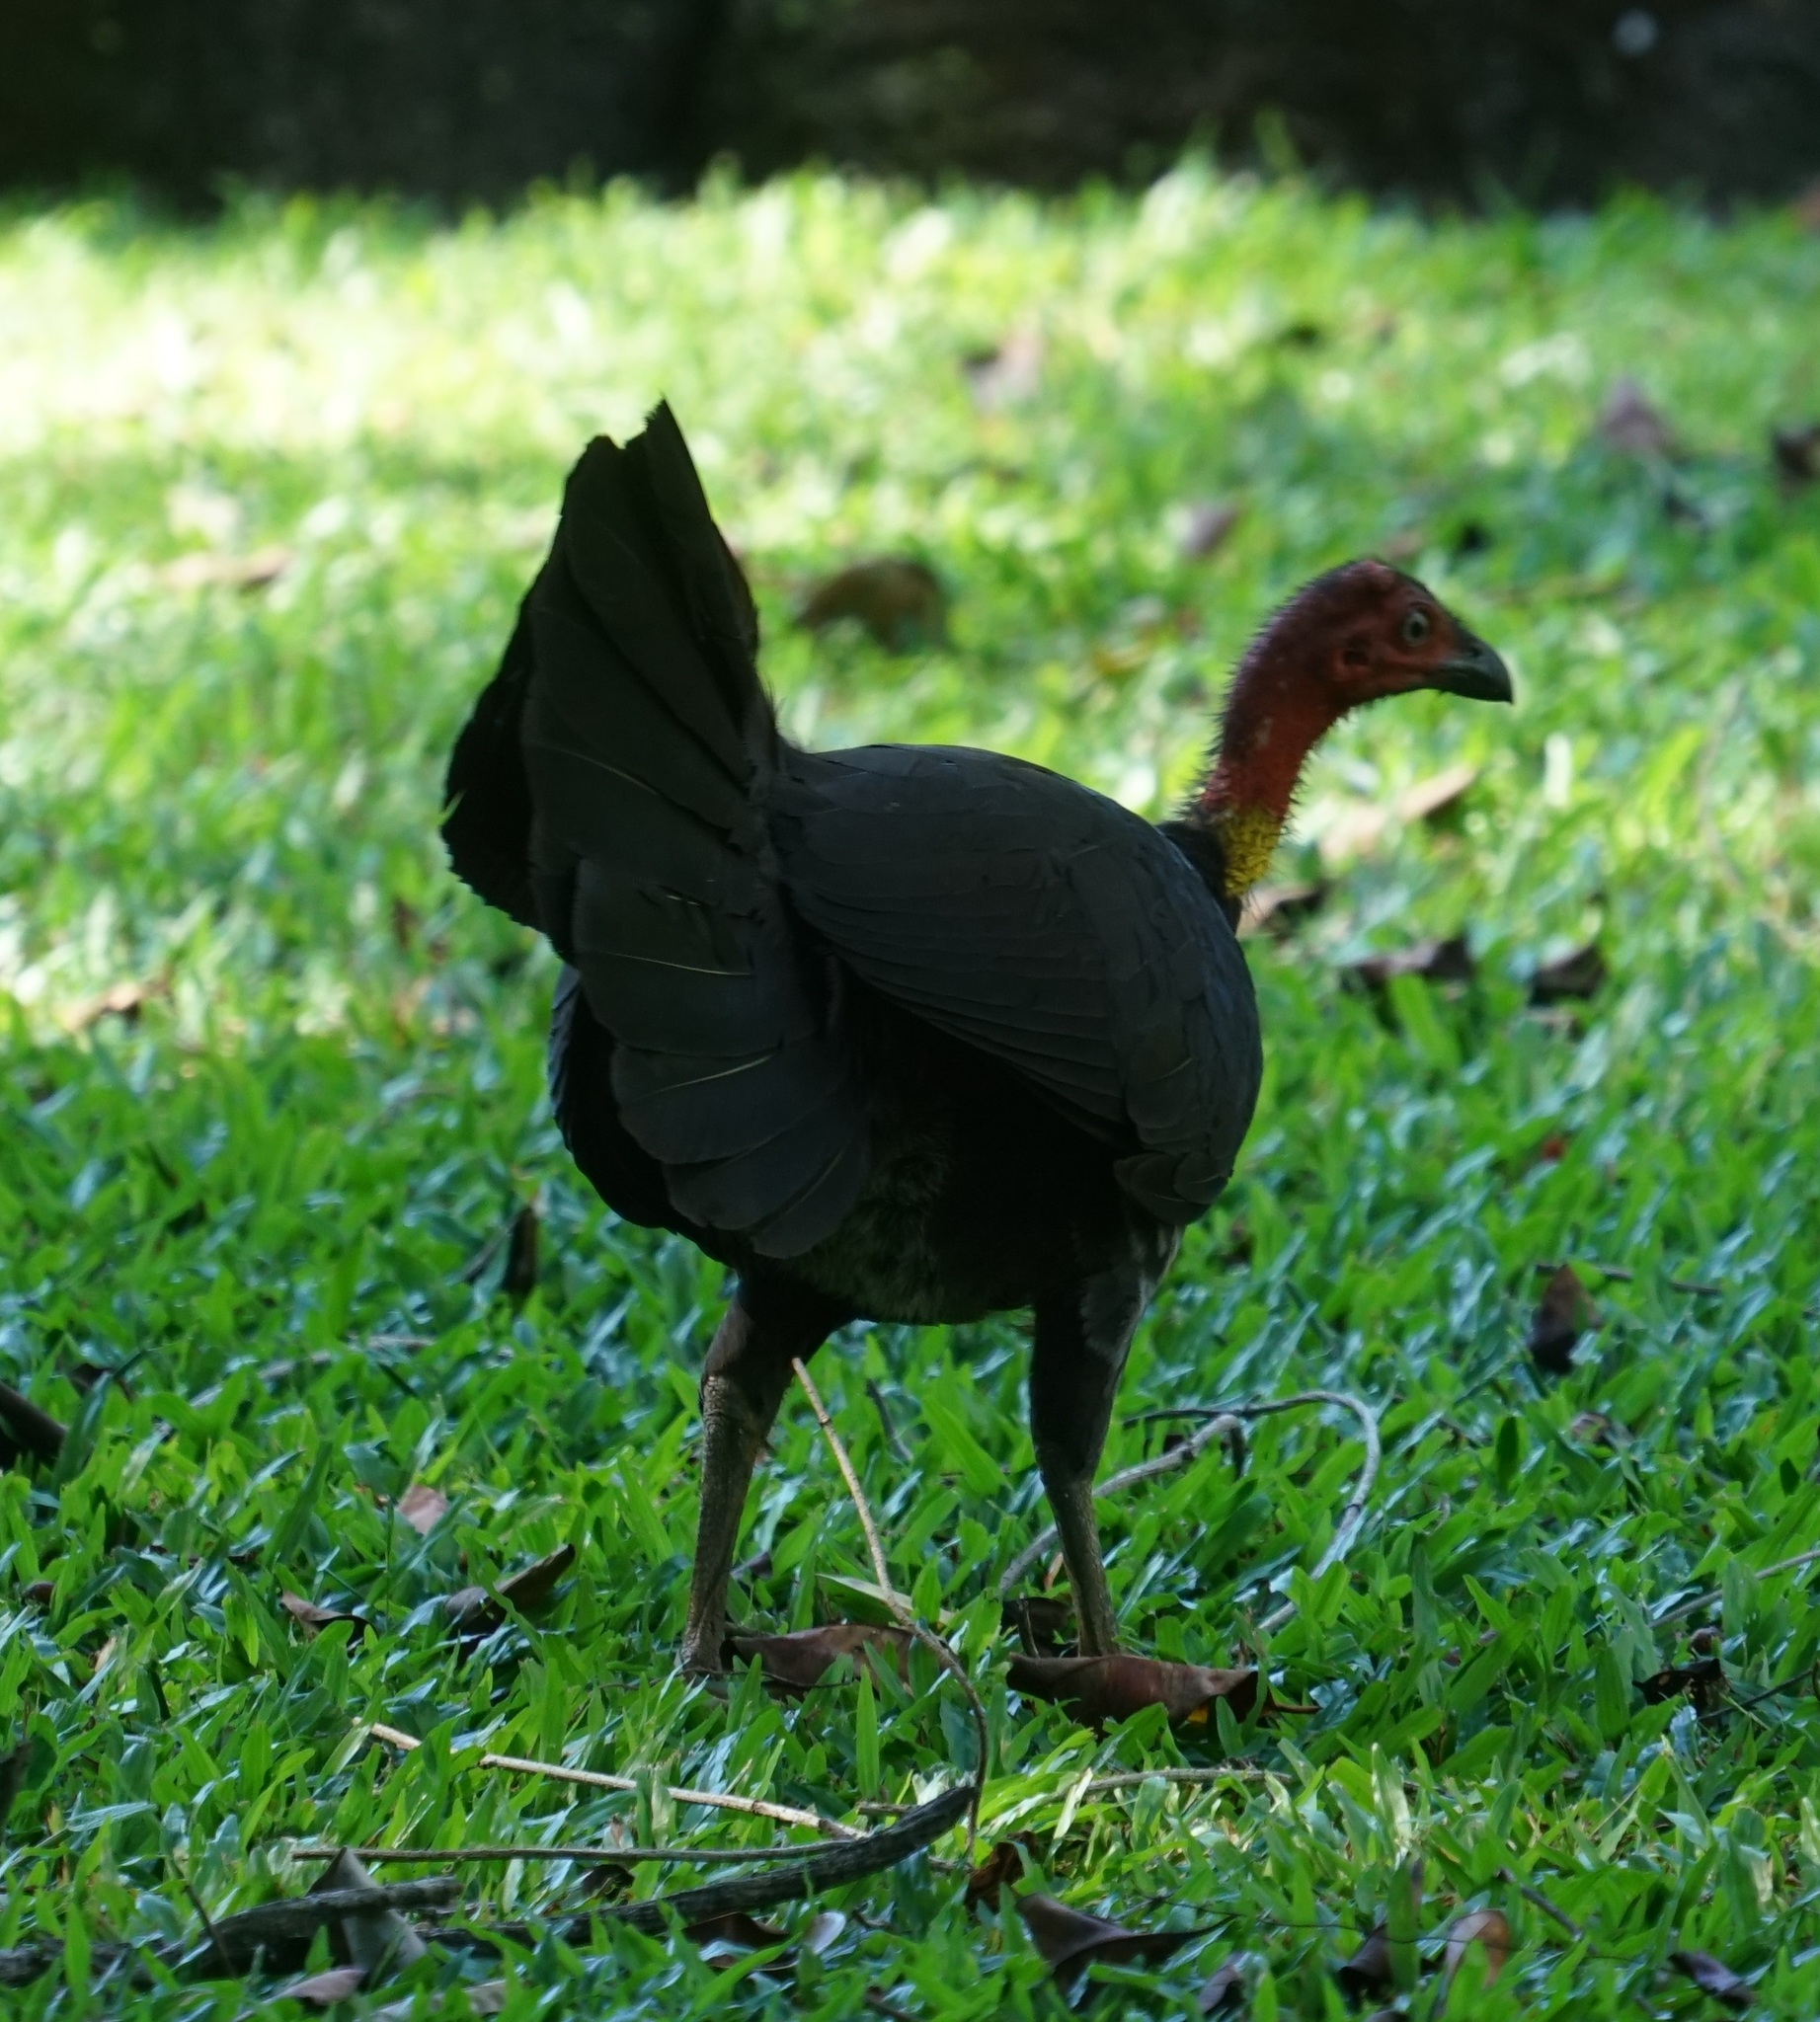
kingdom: Animalia
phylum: Chordata
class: Aves
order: Galliformes
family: Megapodiidae
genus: Alectura
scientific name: Alectura lathami
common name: Australian brushturkey
